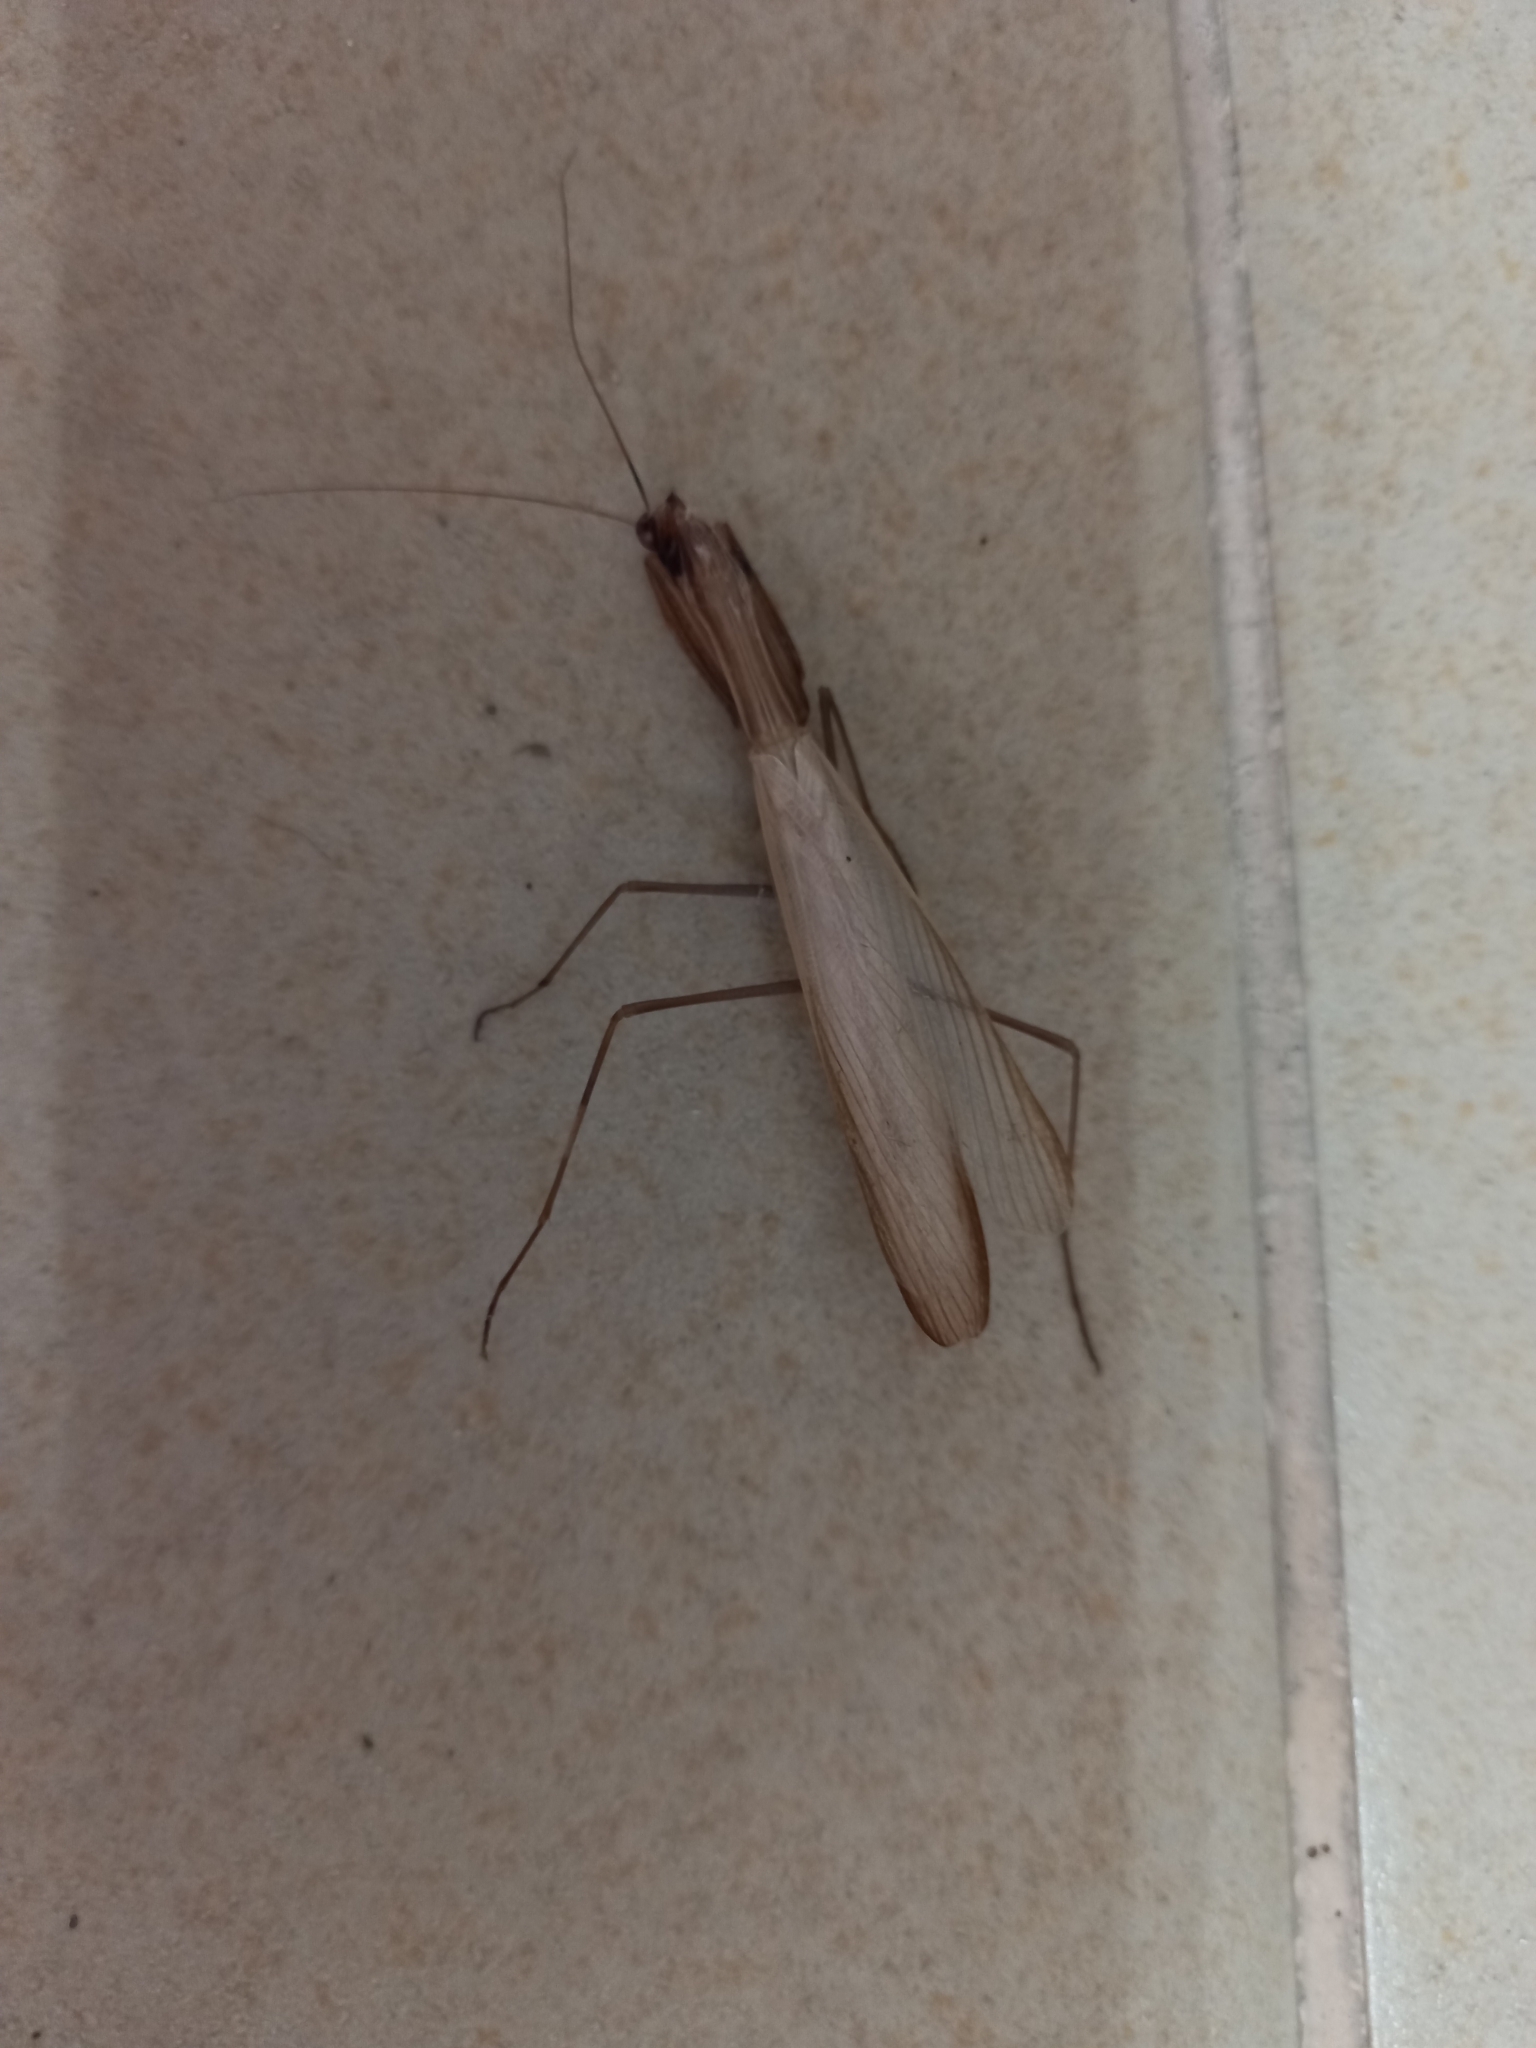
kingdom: Animalia
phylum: Arthropoda
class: Insecta
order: Mantodea
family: Mantidae
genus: Mantis
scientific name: Mantis religiosa
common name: Praying mantis
